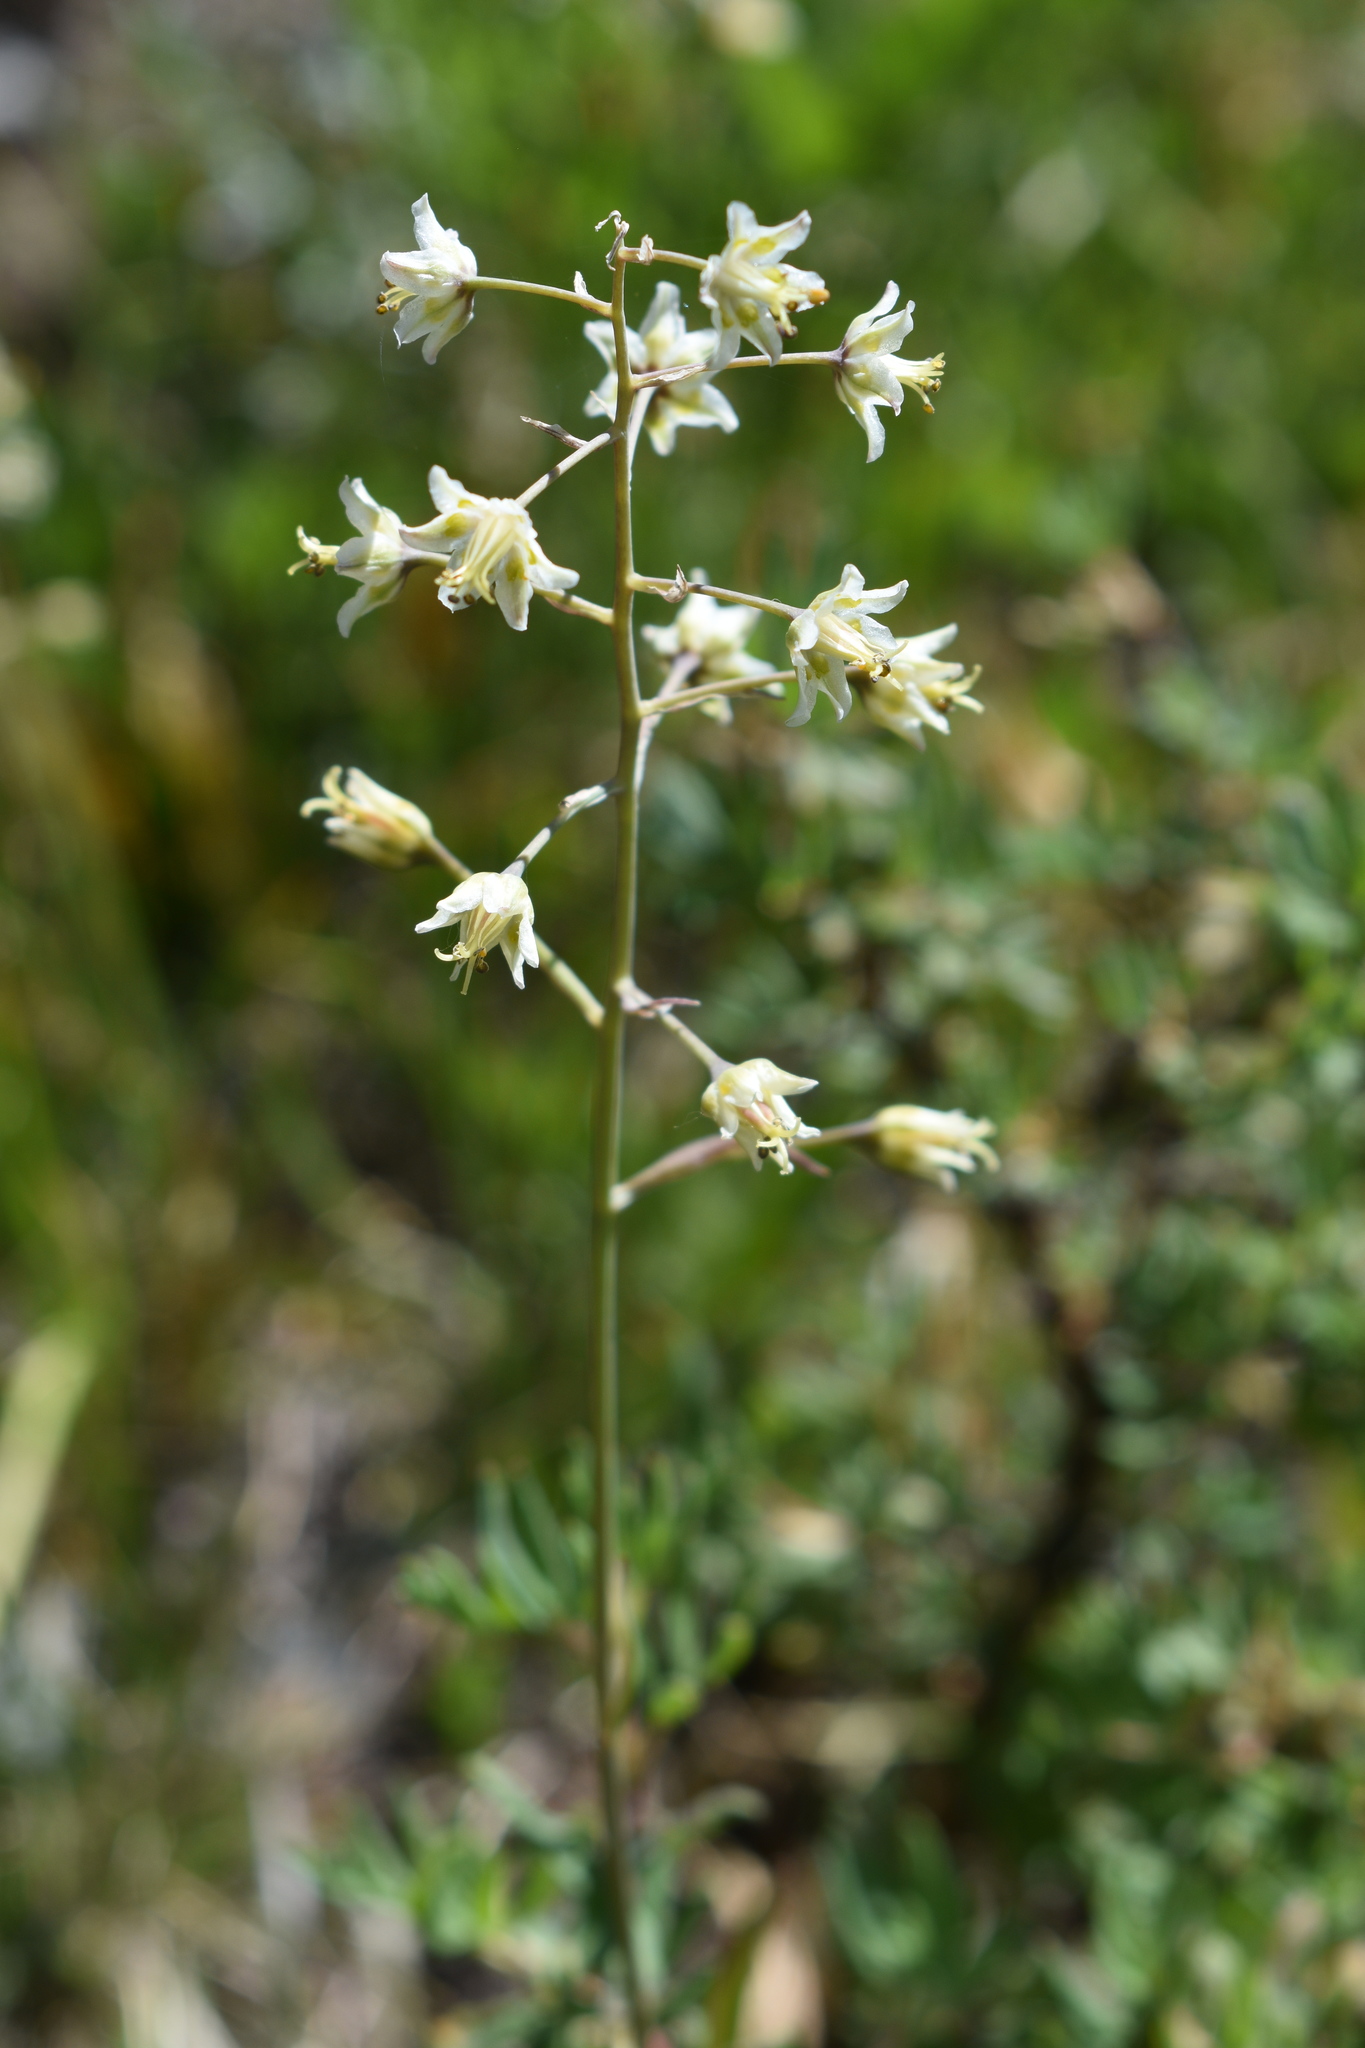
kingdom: Plantae
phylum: Tracheophyta
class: Liliopsida
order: Liliales
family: Melanthiaceae
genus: Anticlea
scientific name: Anticlea elegans
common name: Mountain death camas
